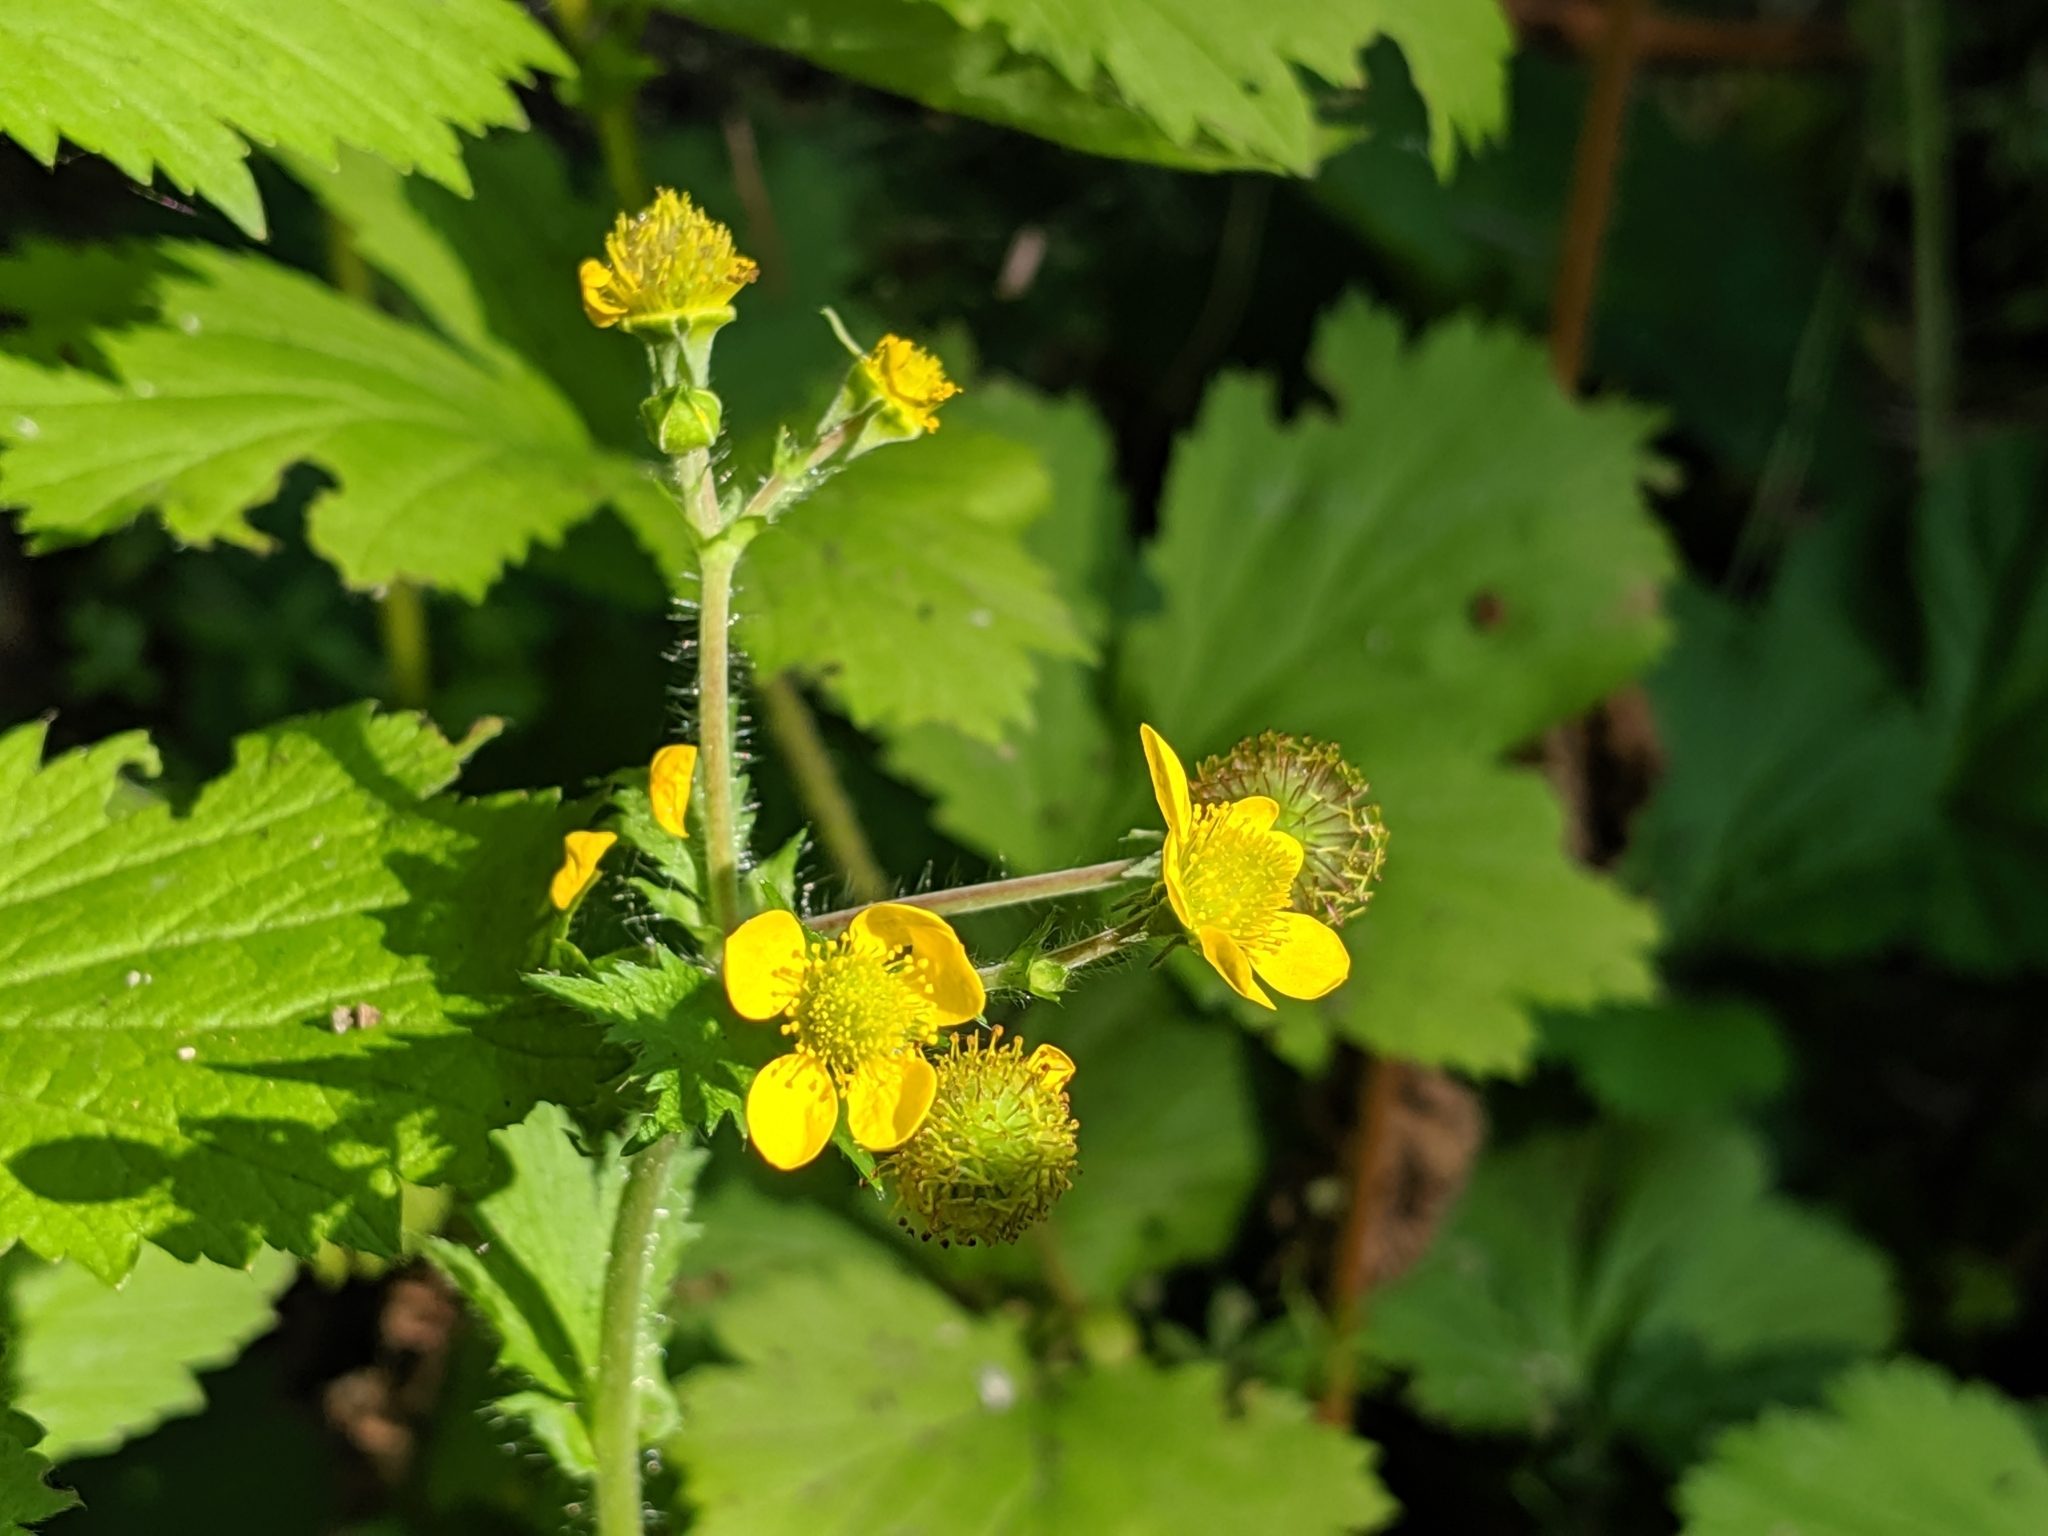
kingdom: Plantae
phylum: Tracheophyta
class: Magnoliopsida
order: Rosales
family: Rosaceae
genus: Geum
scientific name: Geum macrophyllum
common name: Large-leaved avens
